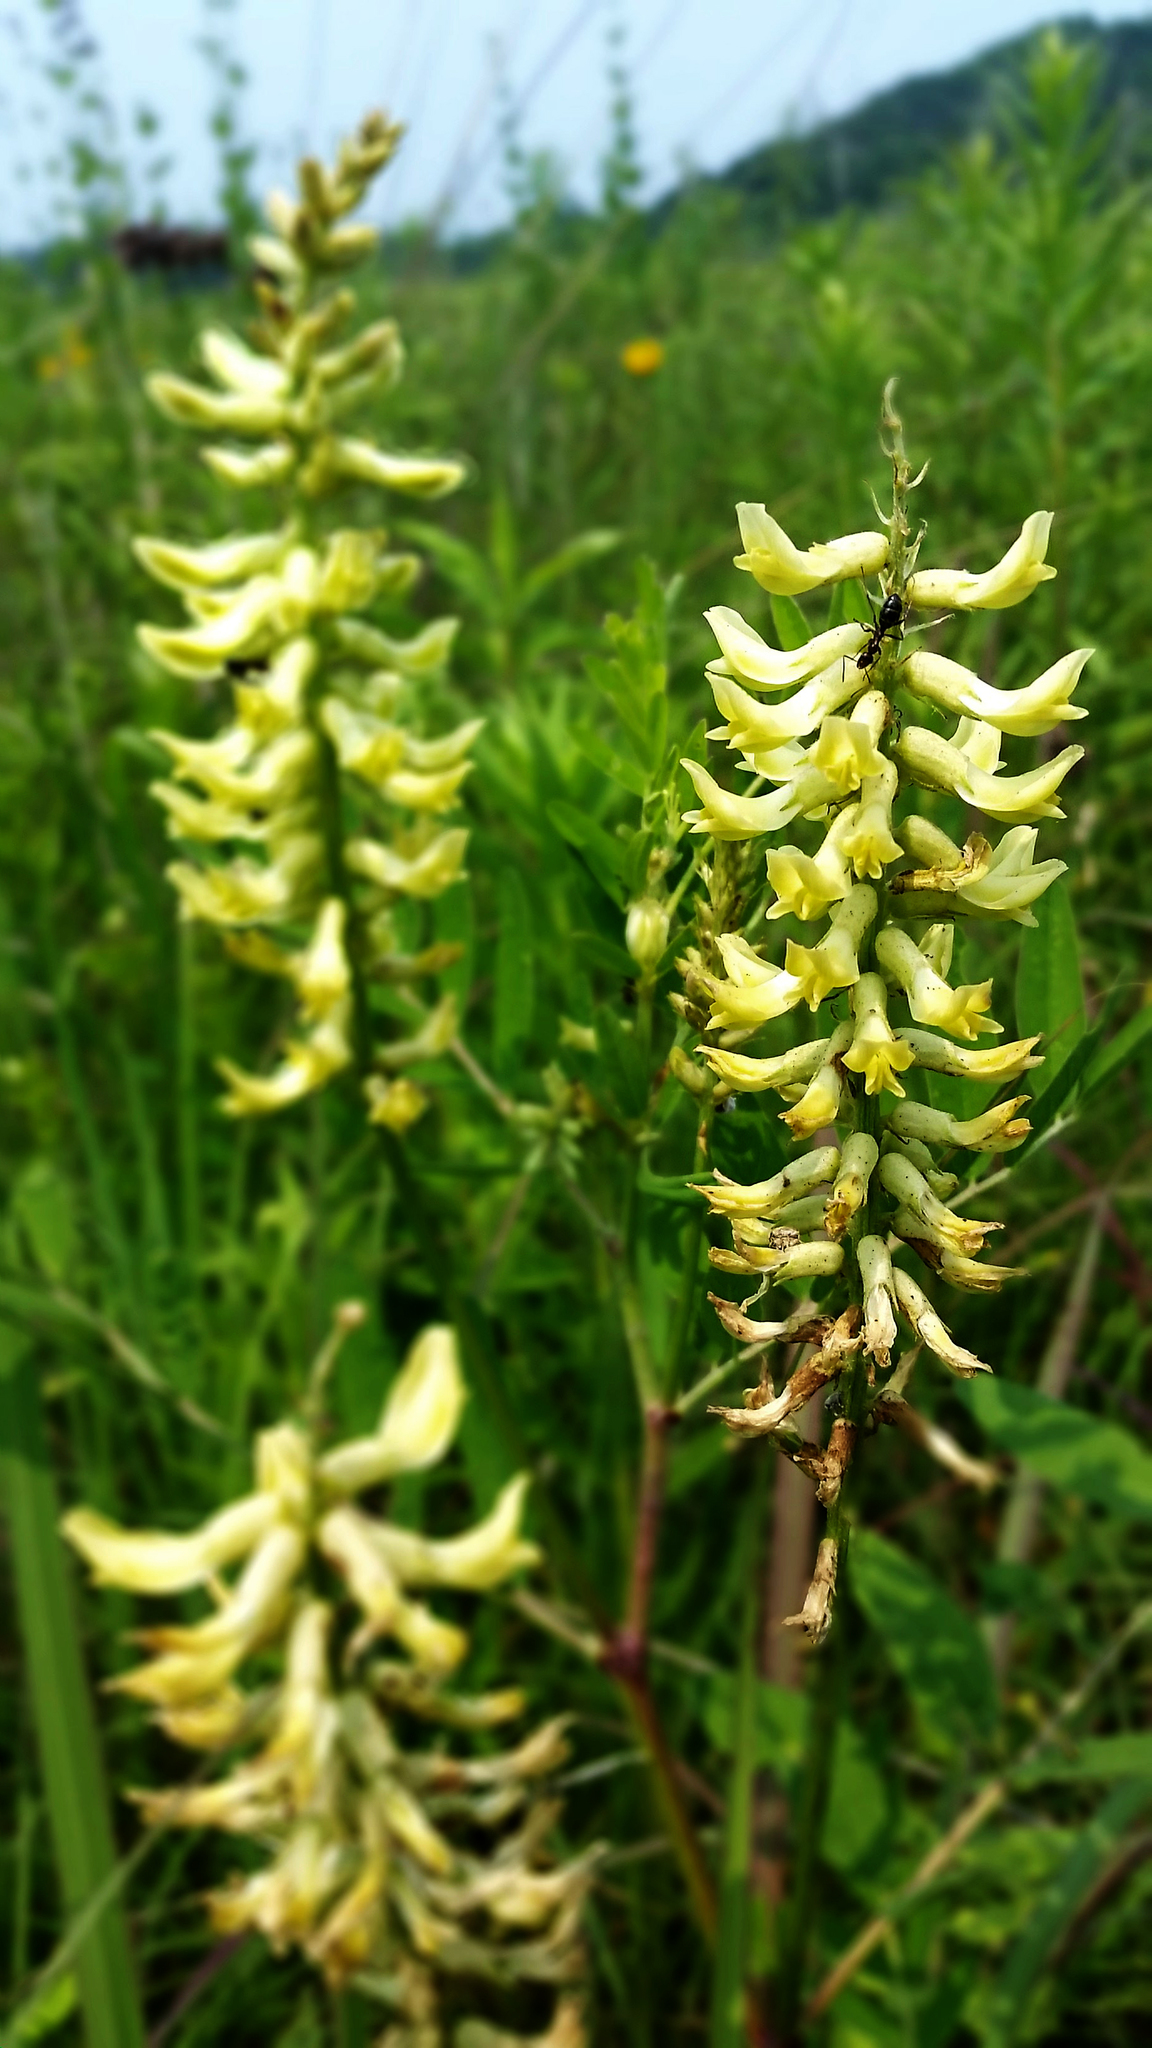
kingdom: Plantae
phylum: Tracheophyta
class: Magnoliopsida
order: Fabales
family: Fabaceae
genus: Astragalus
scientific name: Astragalus canadensis
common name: Canada milk-vetch
